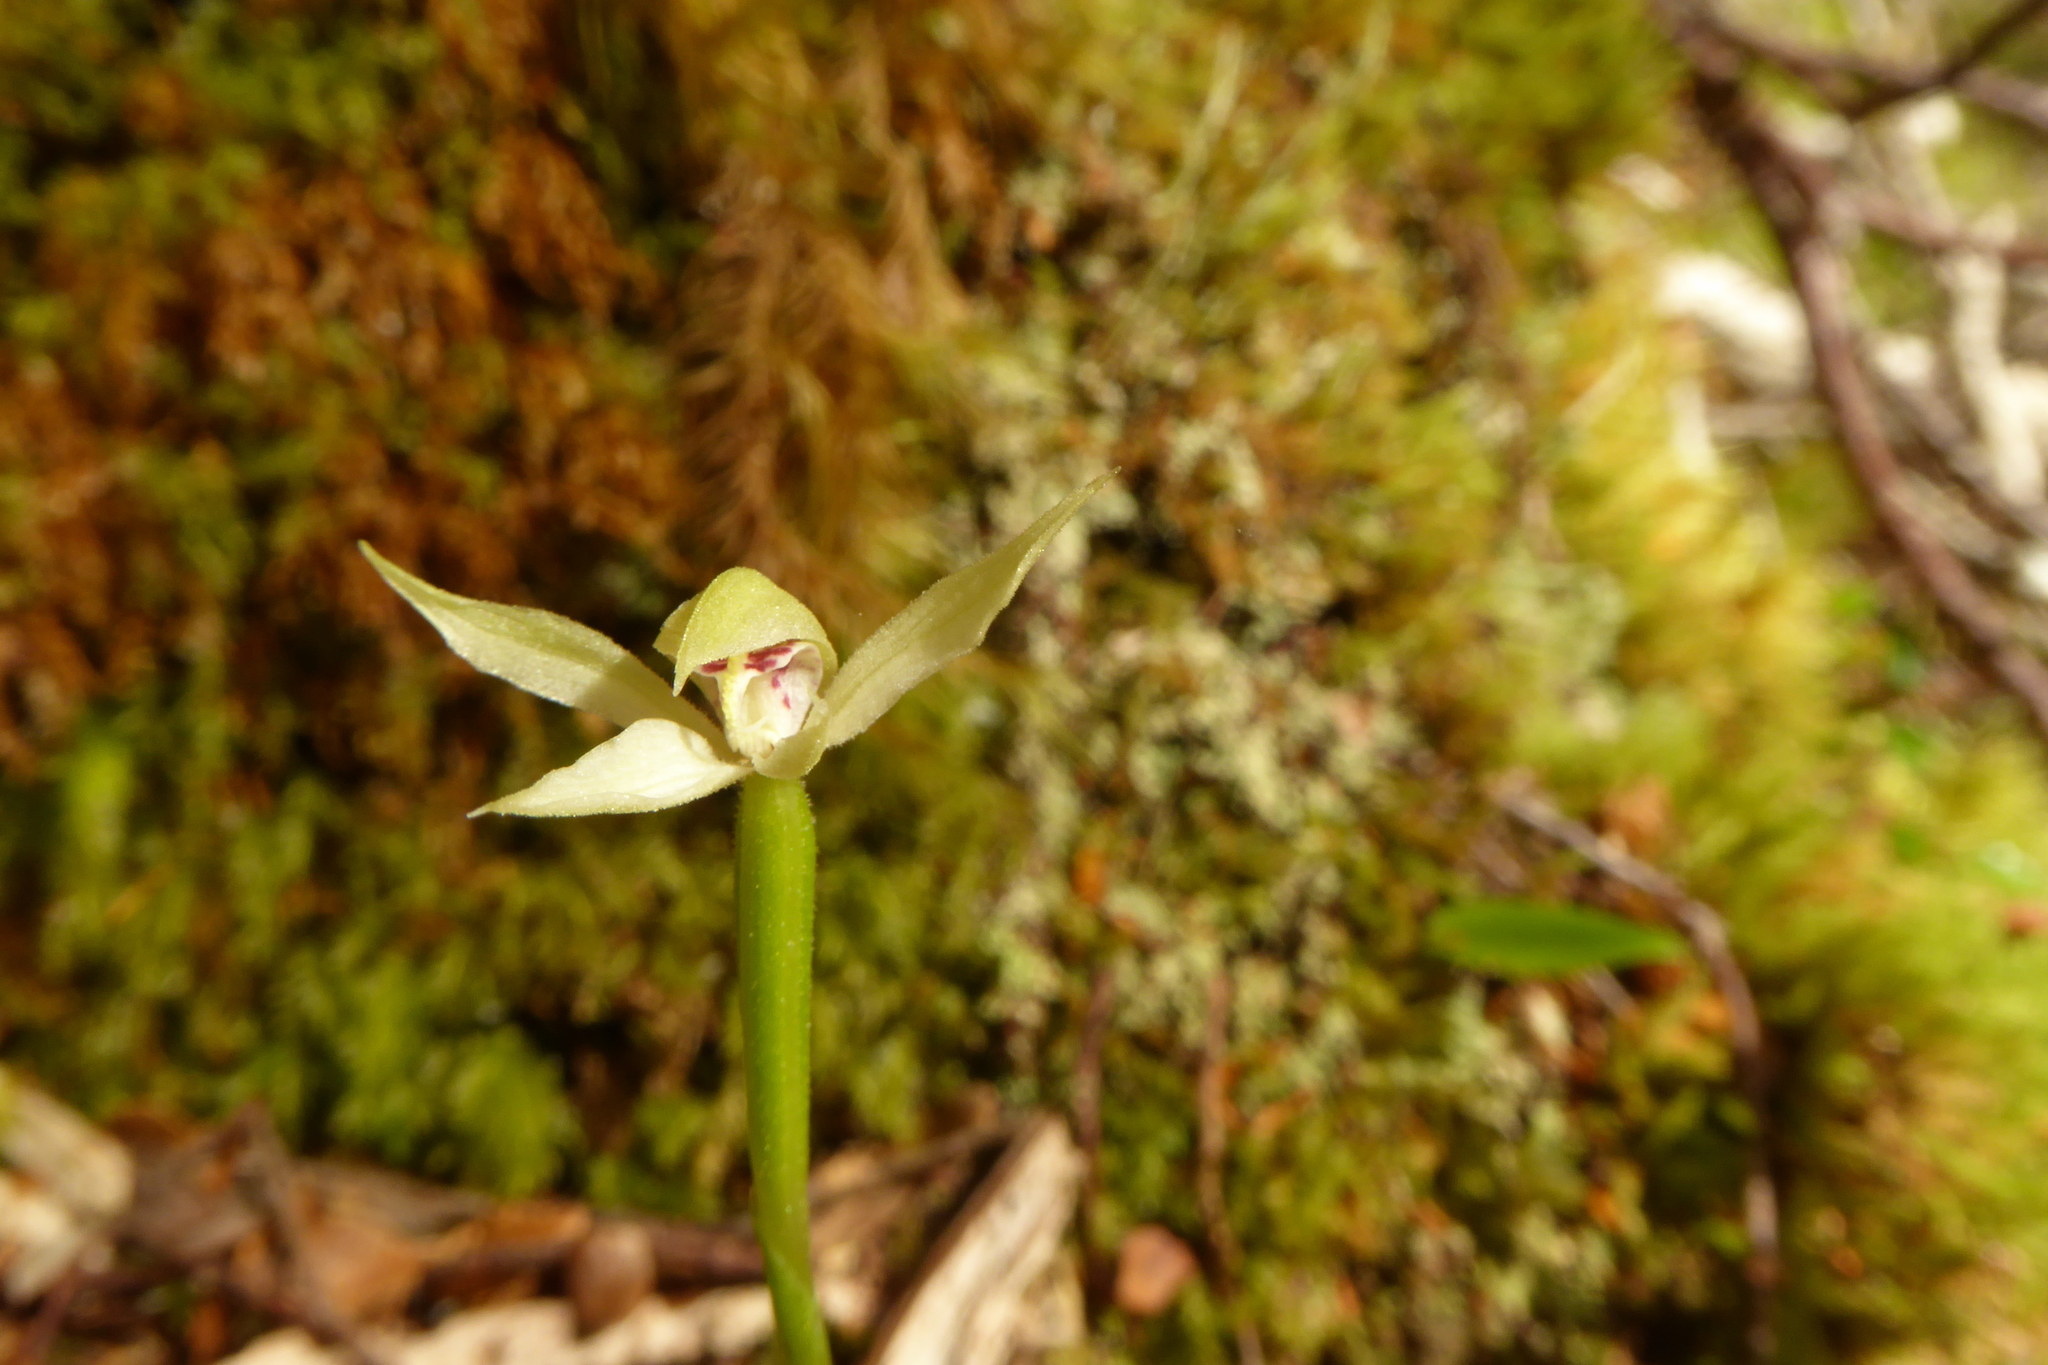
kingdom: Plantae
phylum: Tracheophyta
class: Liliopsida
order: Asparagales
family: Orchidaceae
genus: Adenochilus
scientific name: Adenochilus gracilis
